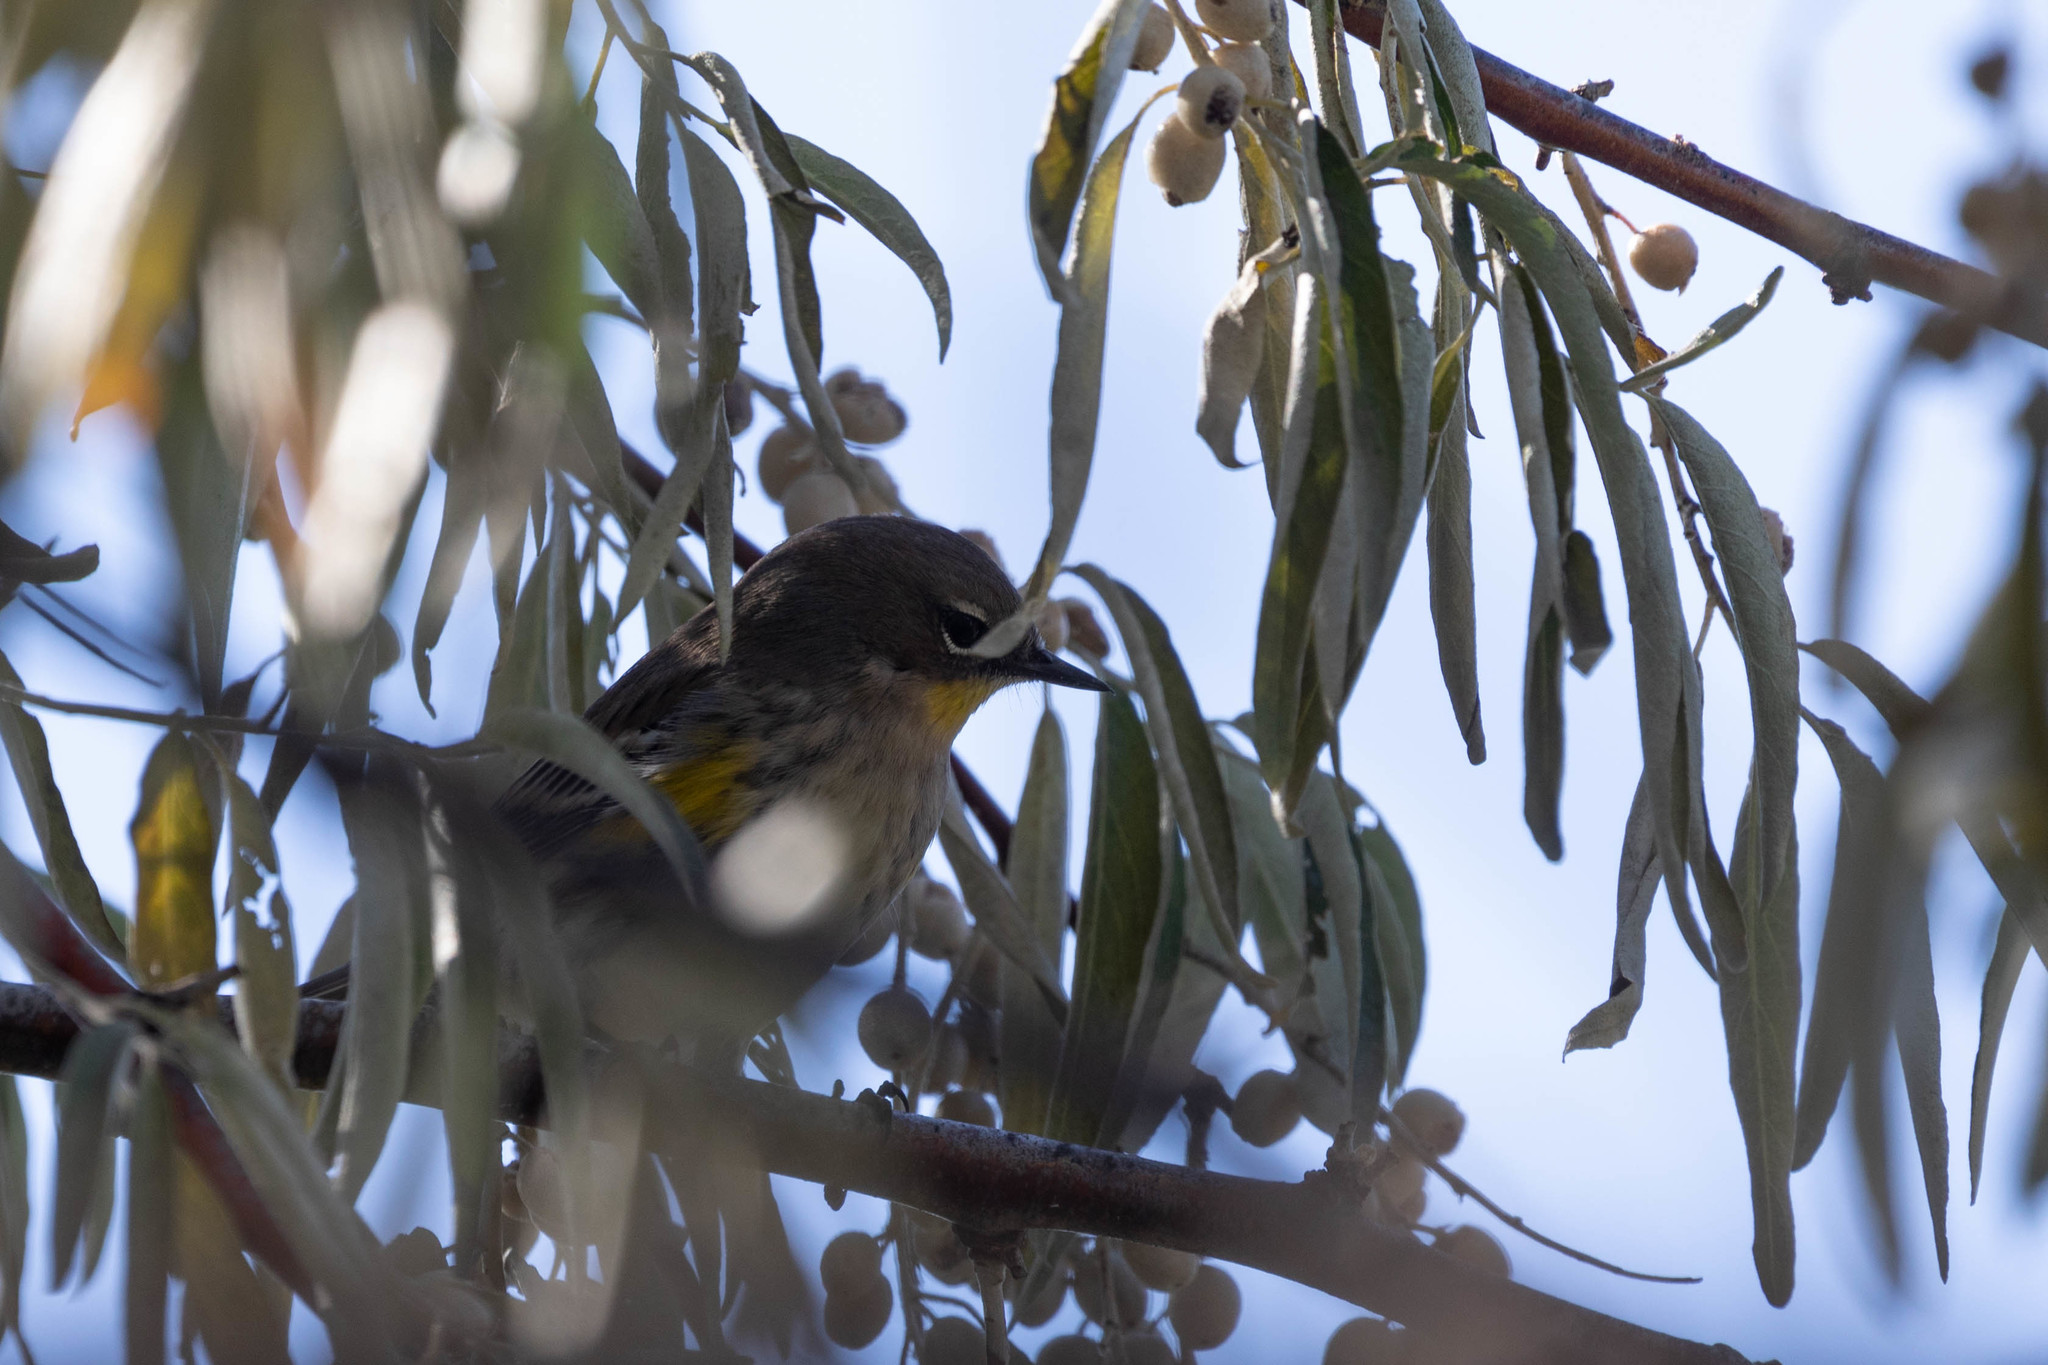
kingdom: Animalia
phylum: Chordata
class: Aves
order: Passeriformes
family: Parulidae
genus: Setophaga
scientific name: Setophaga auduboni
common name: Audubon's warbler
